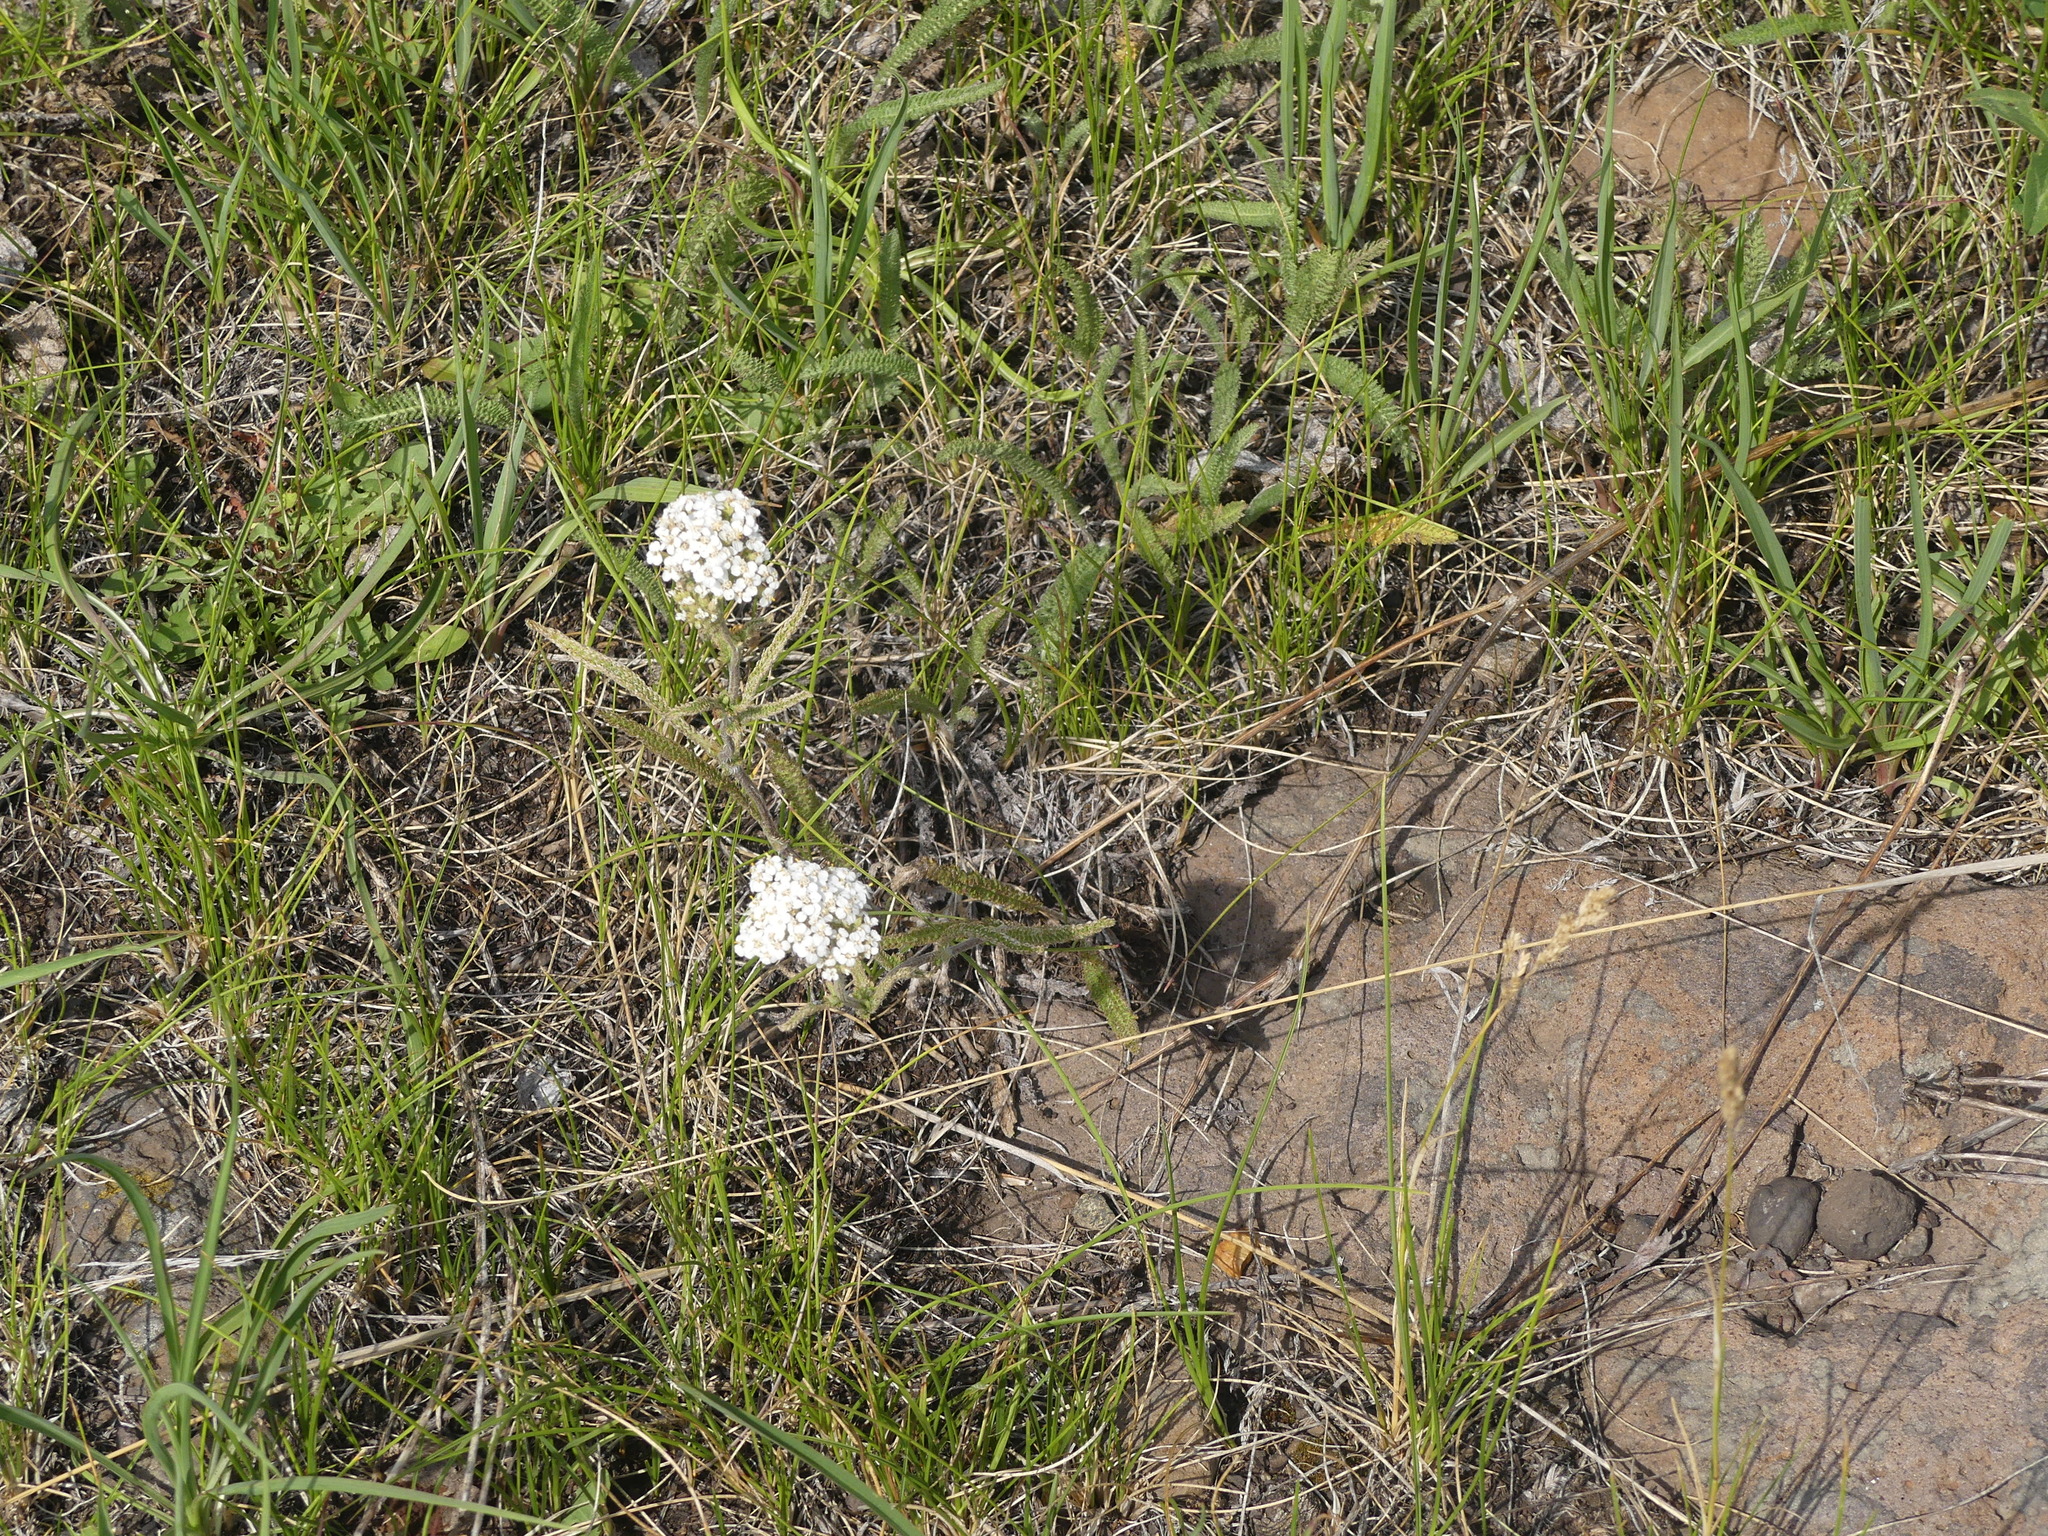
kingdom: Plantae
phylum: Tracheophyta
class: Magnoliopsida
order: Asterales
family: Asteraceae
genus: Achillea
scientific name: Achillea millefolium
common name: Yarrow
